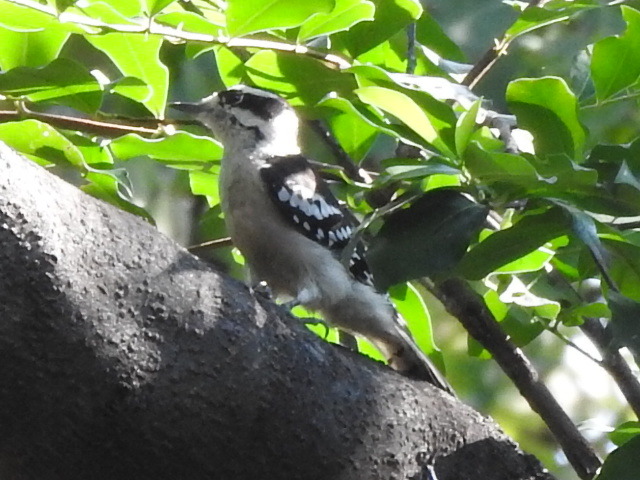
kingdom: Animalia
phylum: Chordata
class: Aves
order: Piciformes
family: Picidae
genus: Dryobates
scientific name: Dryobates pubescens
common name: Downy woodpecker
